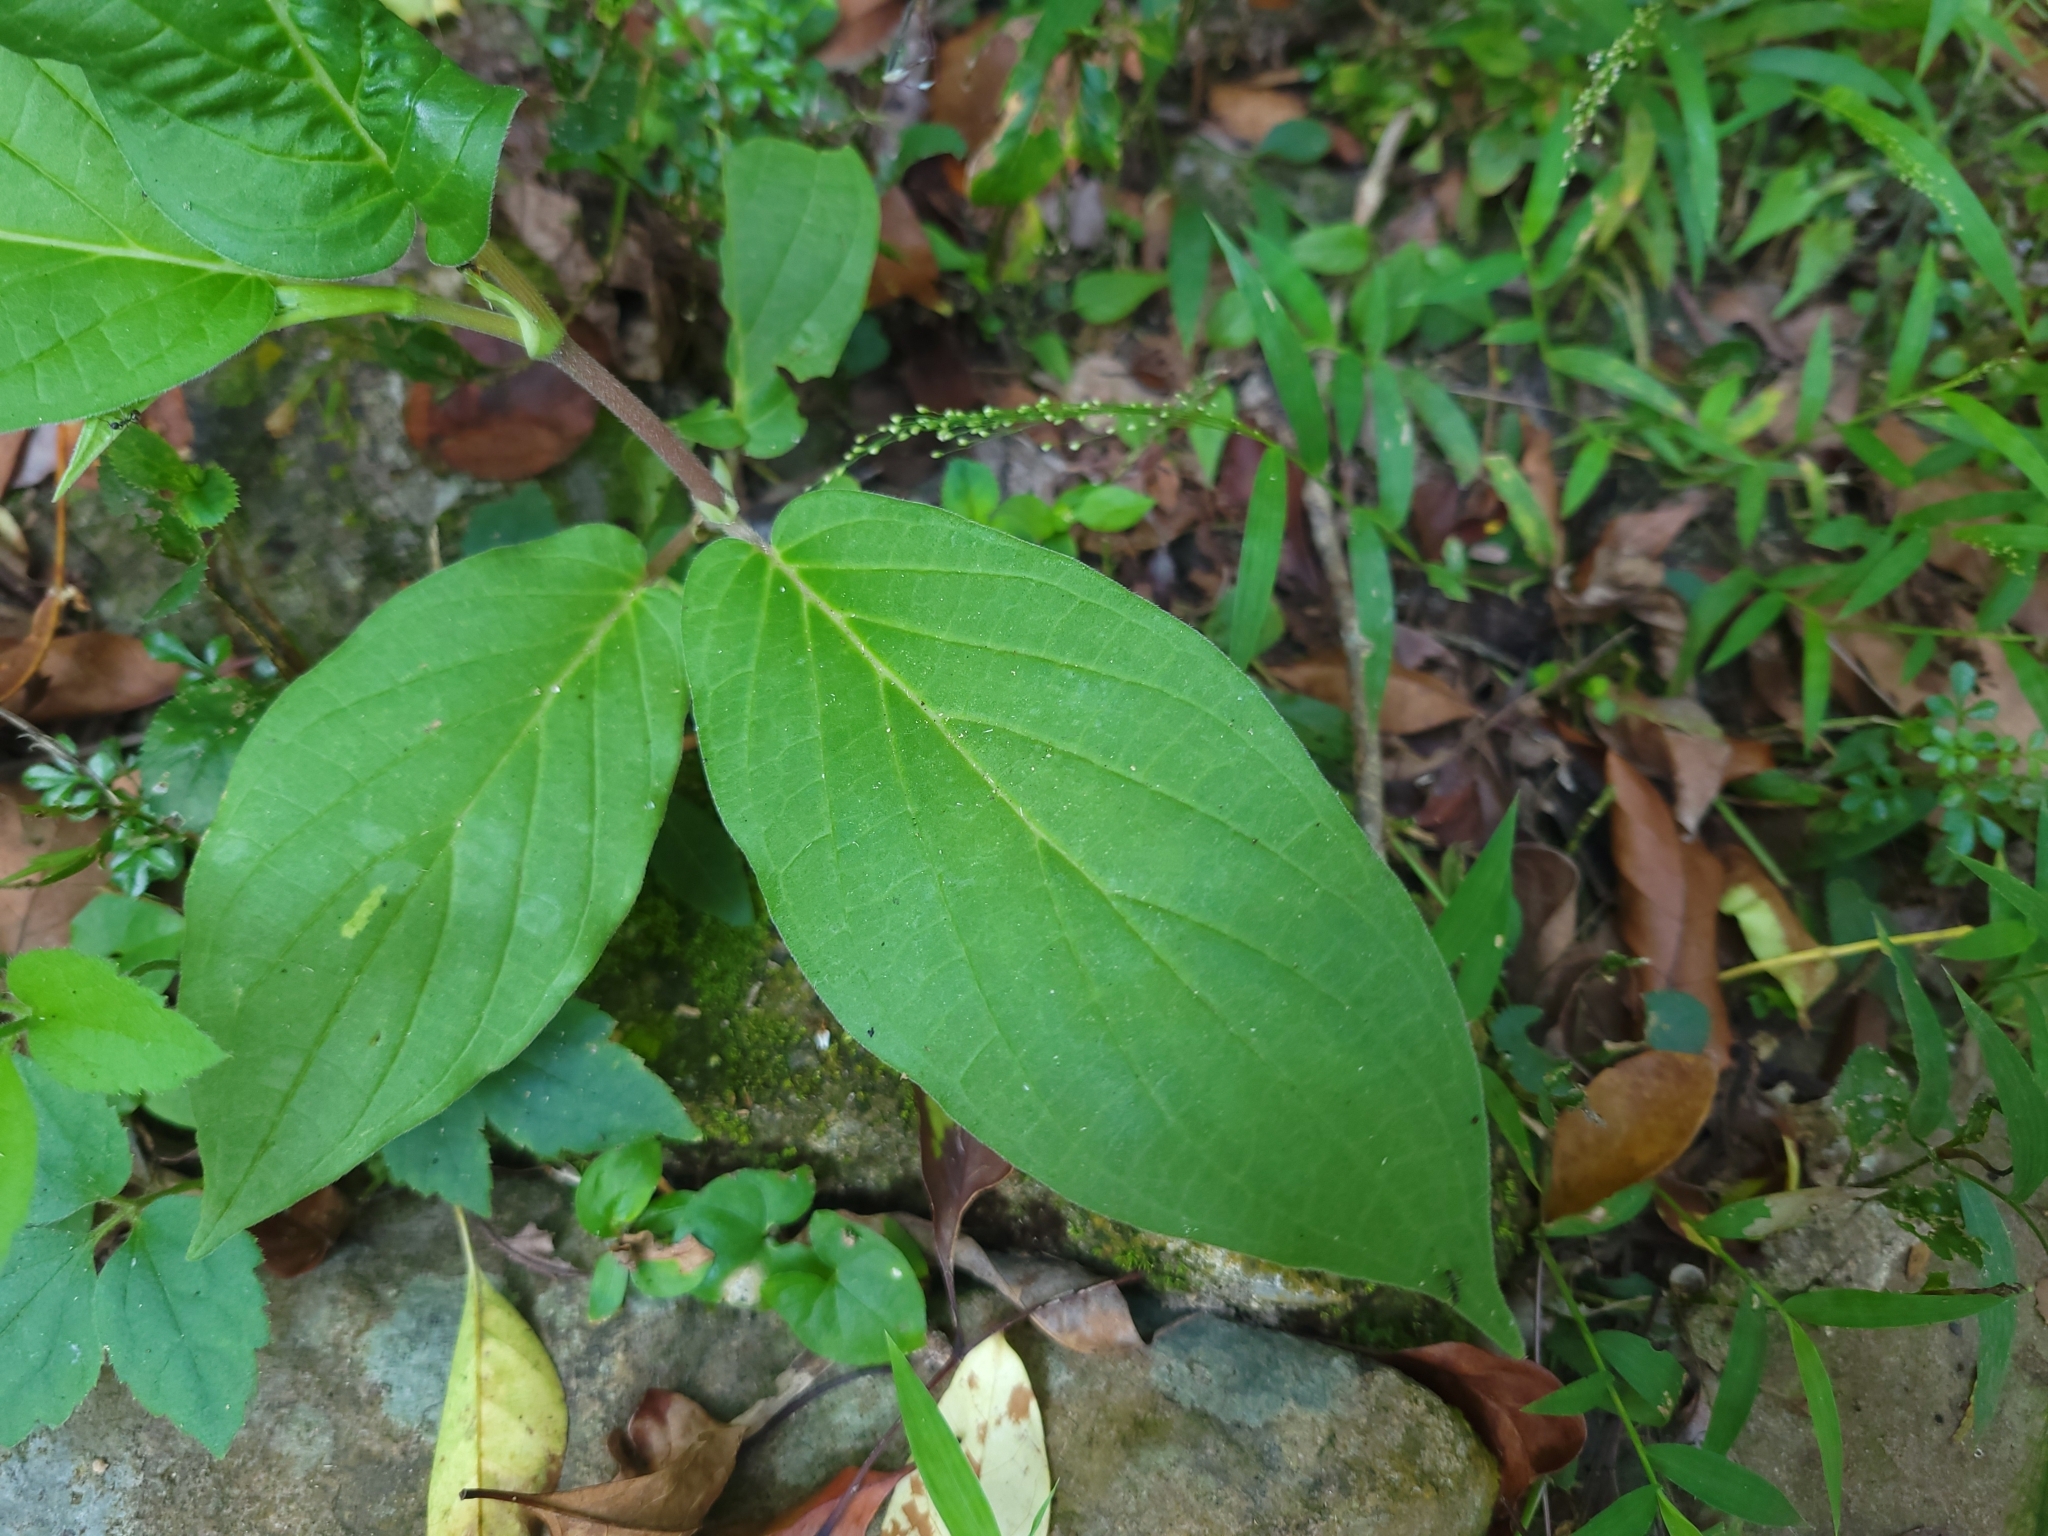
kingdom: Plantae
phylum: Tracheophyta
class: Magnoliopsida
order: Piperales
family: Piperaceae
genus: Piper
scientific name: Piper aduncum
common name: Spiked pepper
